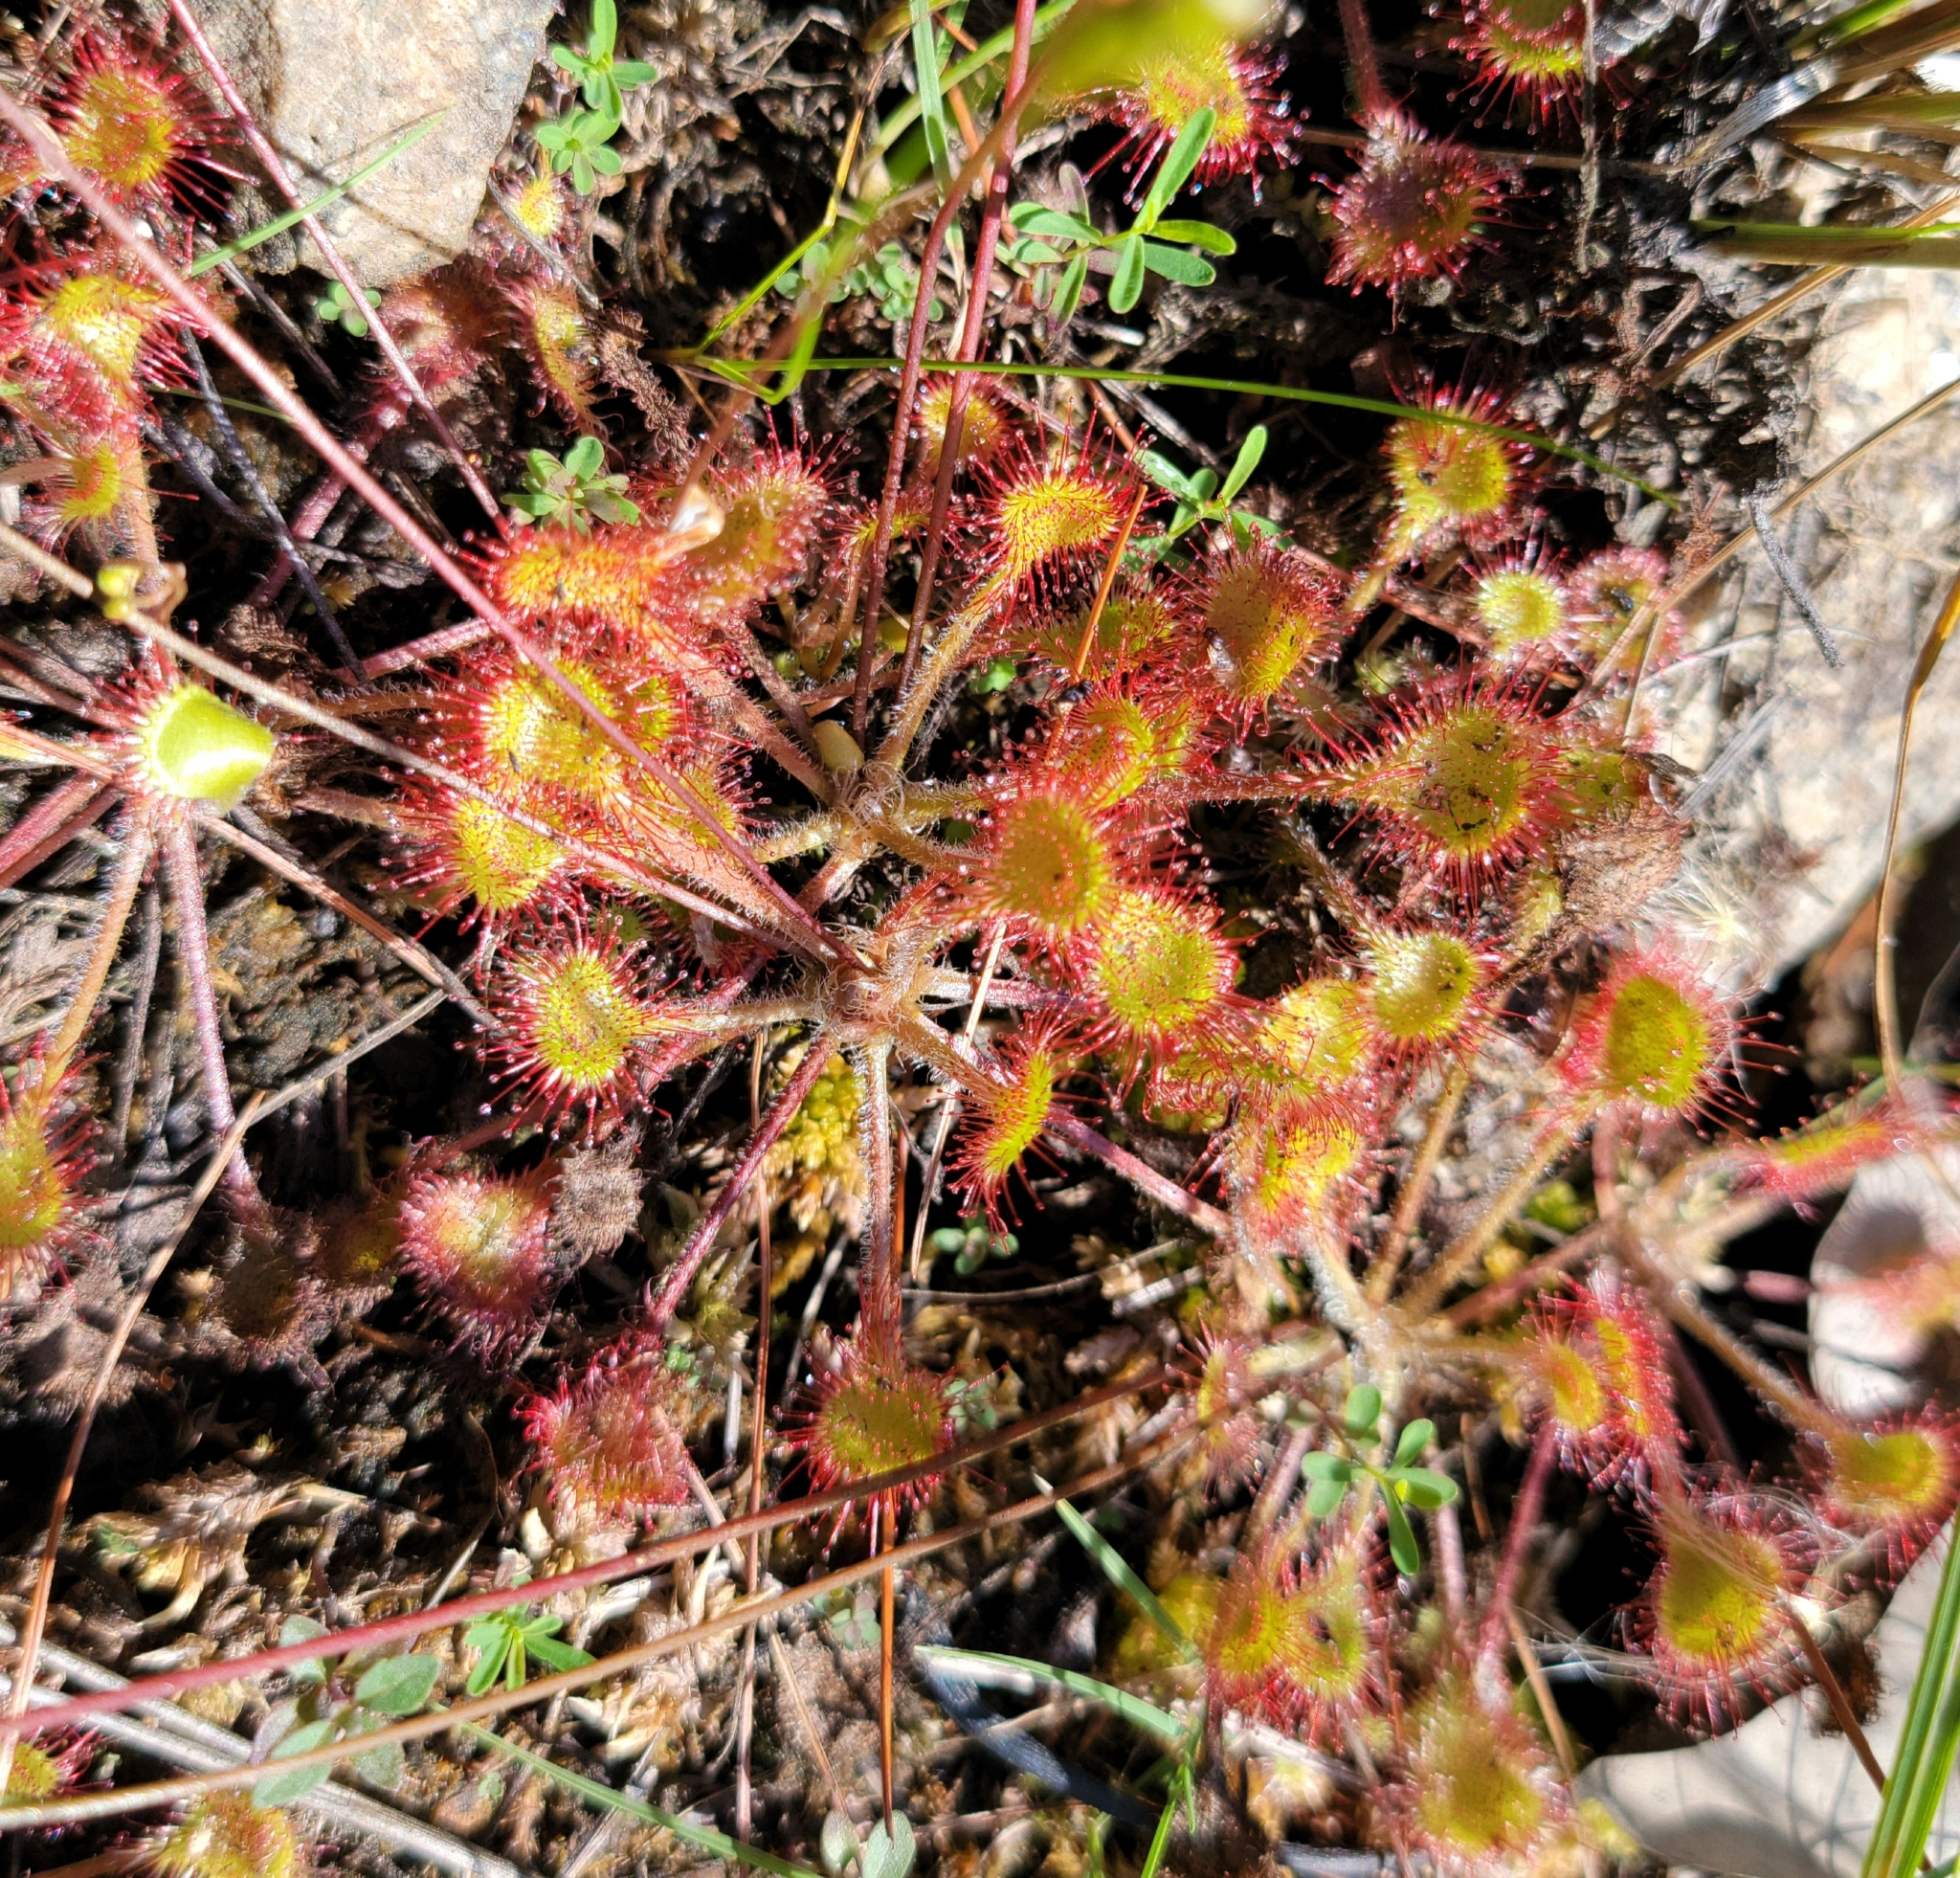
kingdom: Plantae
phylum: Tracheophyta
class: Magnoliopsida
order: Caryophyllales
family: Droseraceae
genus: Drosera
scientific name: Drosera rotundifolia
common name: Round-leaved sundew
